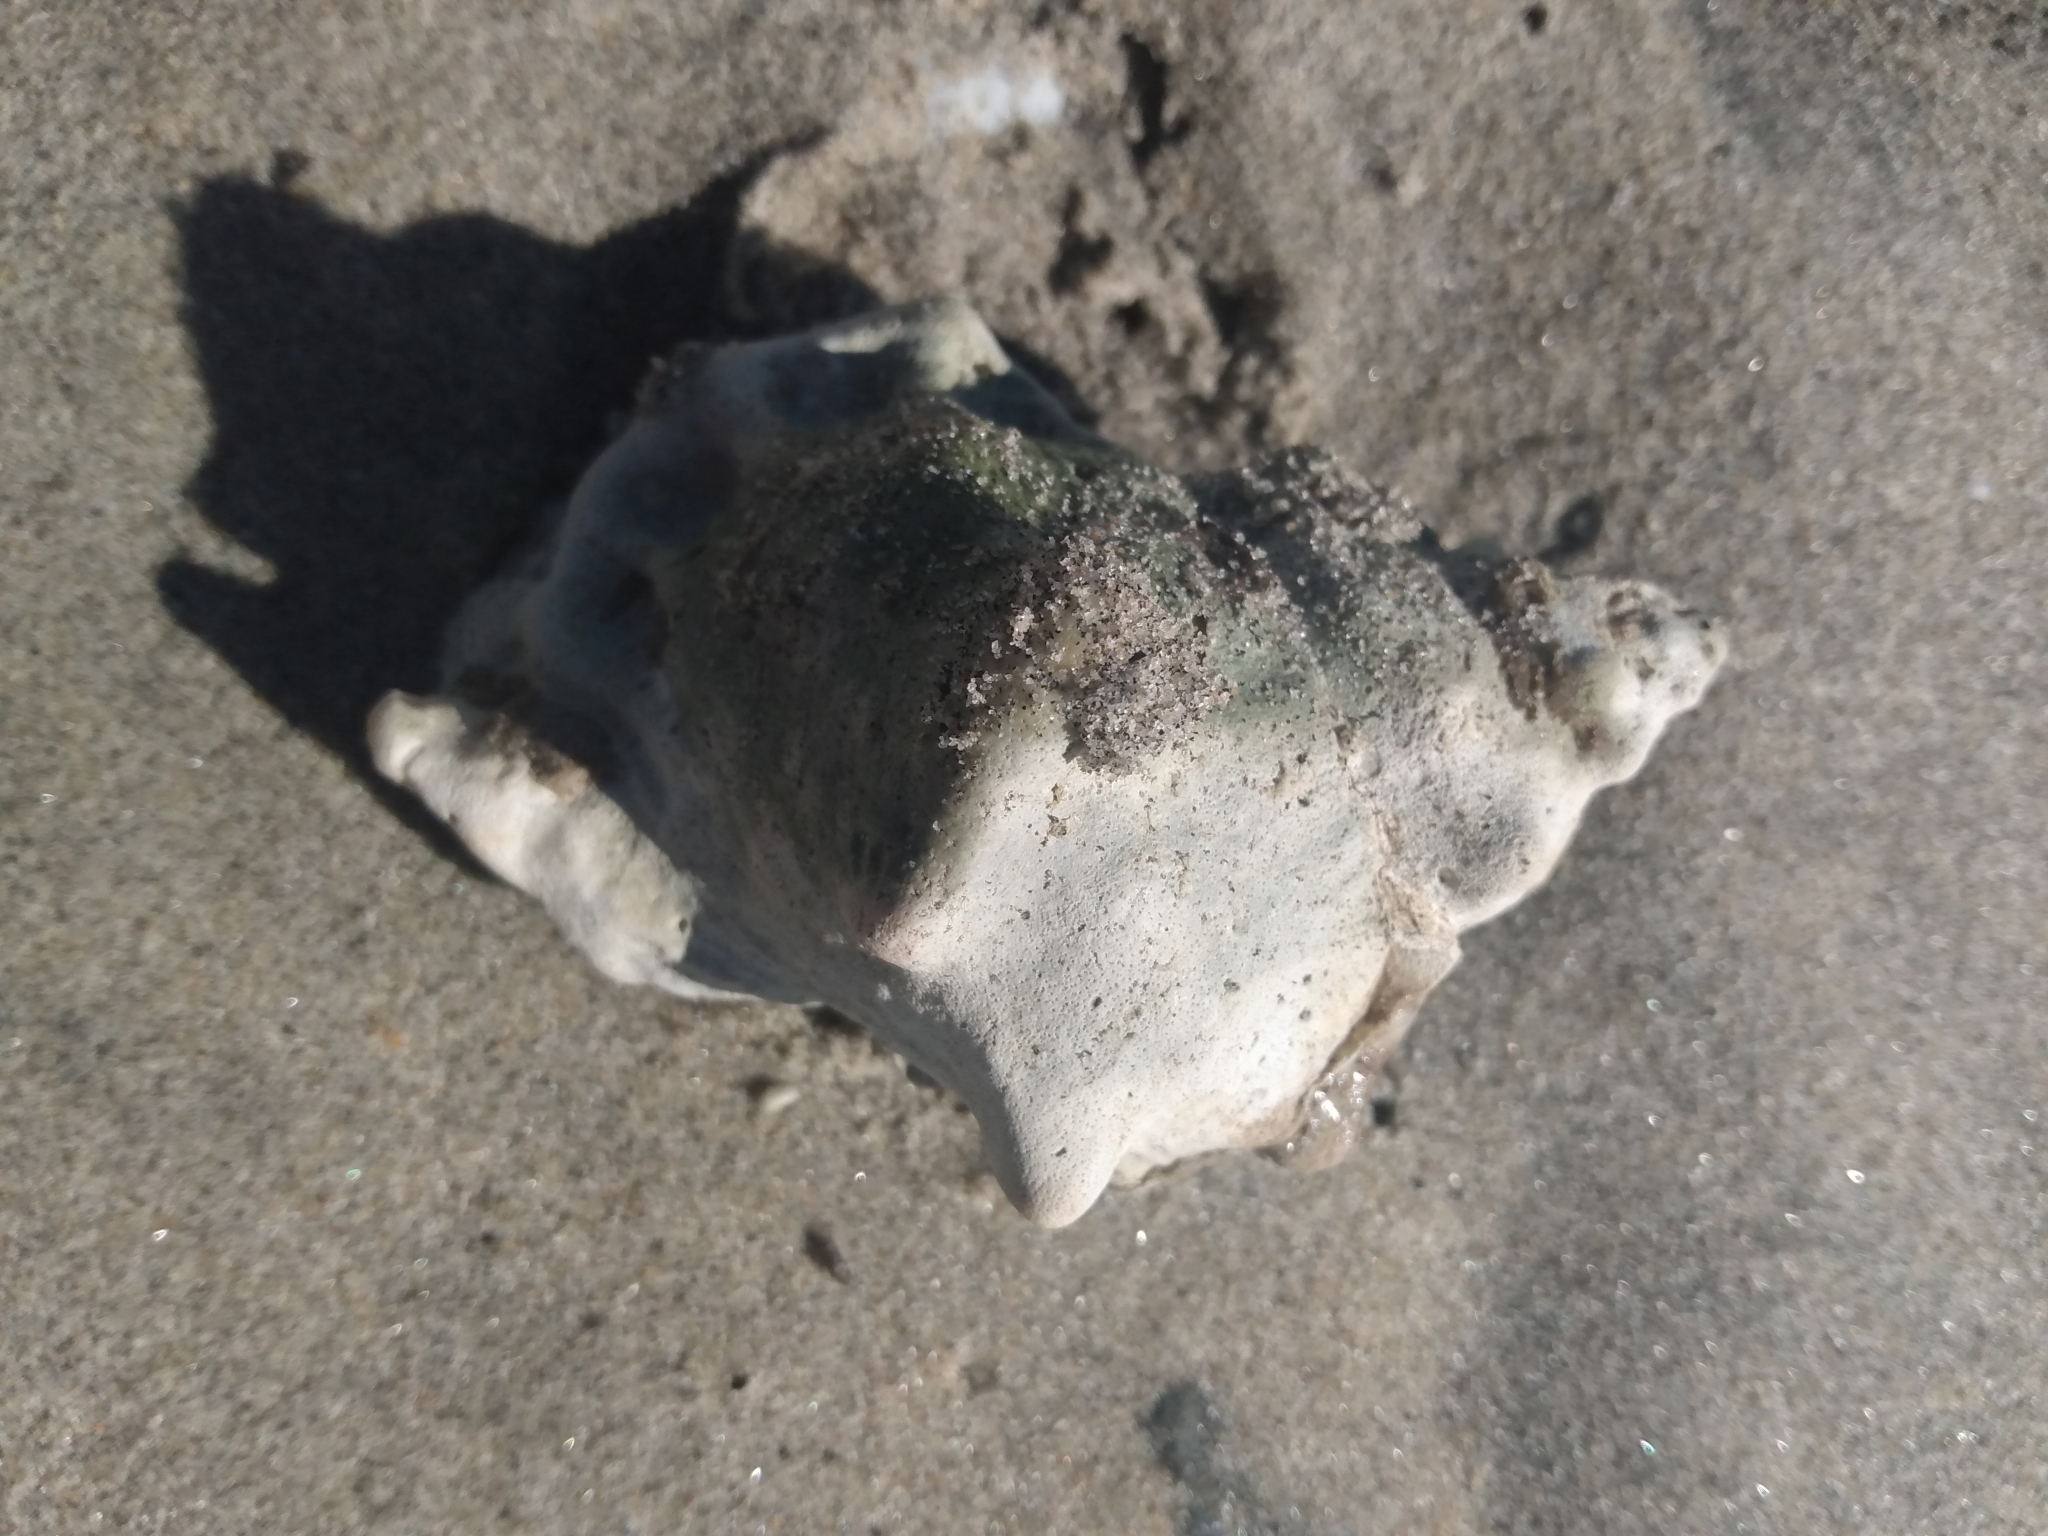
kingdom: Animalia
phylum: Mollusca
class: Gastropoda
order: Littorinimorpha
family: Bursidae
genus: Crossata
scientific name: Crossata californica
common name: California frogsnail
